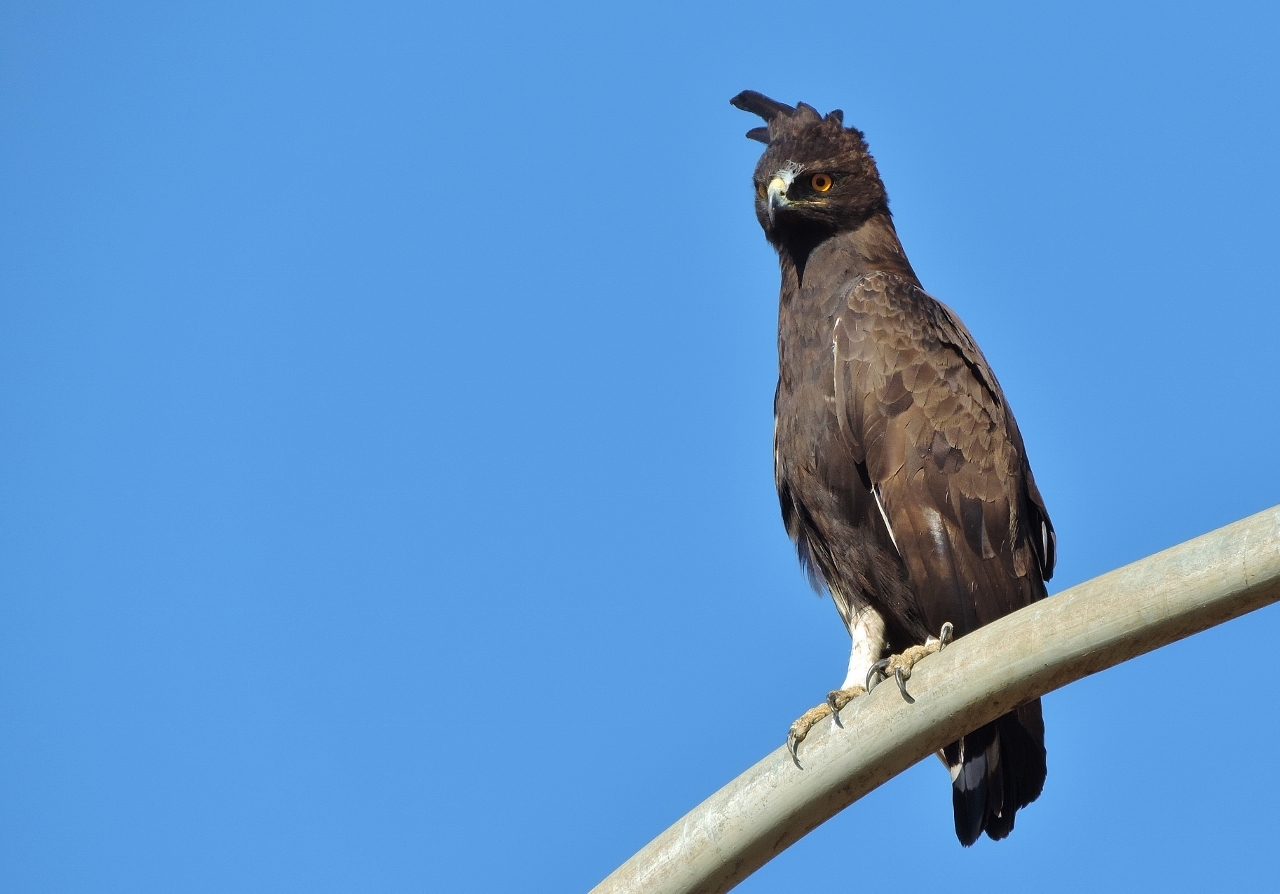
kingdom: Animalia
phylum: Chordata
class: Aves
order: Accipitriformes
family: Accipitridae
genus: Lophaetus
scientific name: Lophaetus occipitalis
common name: Long-crested eagle
